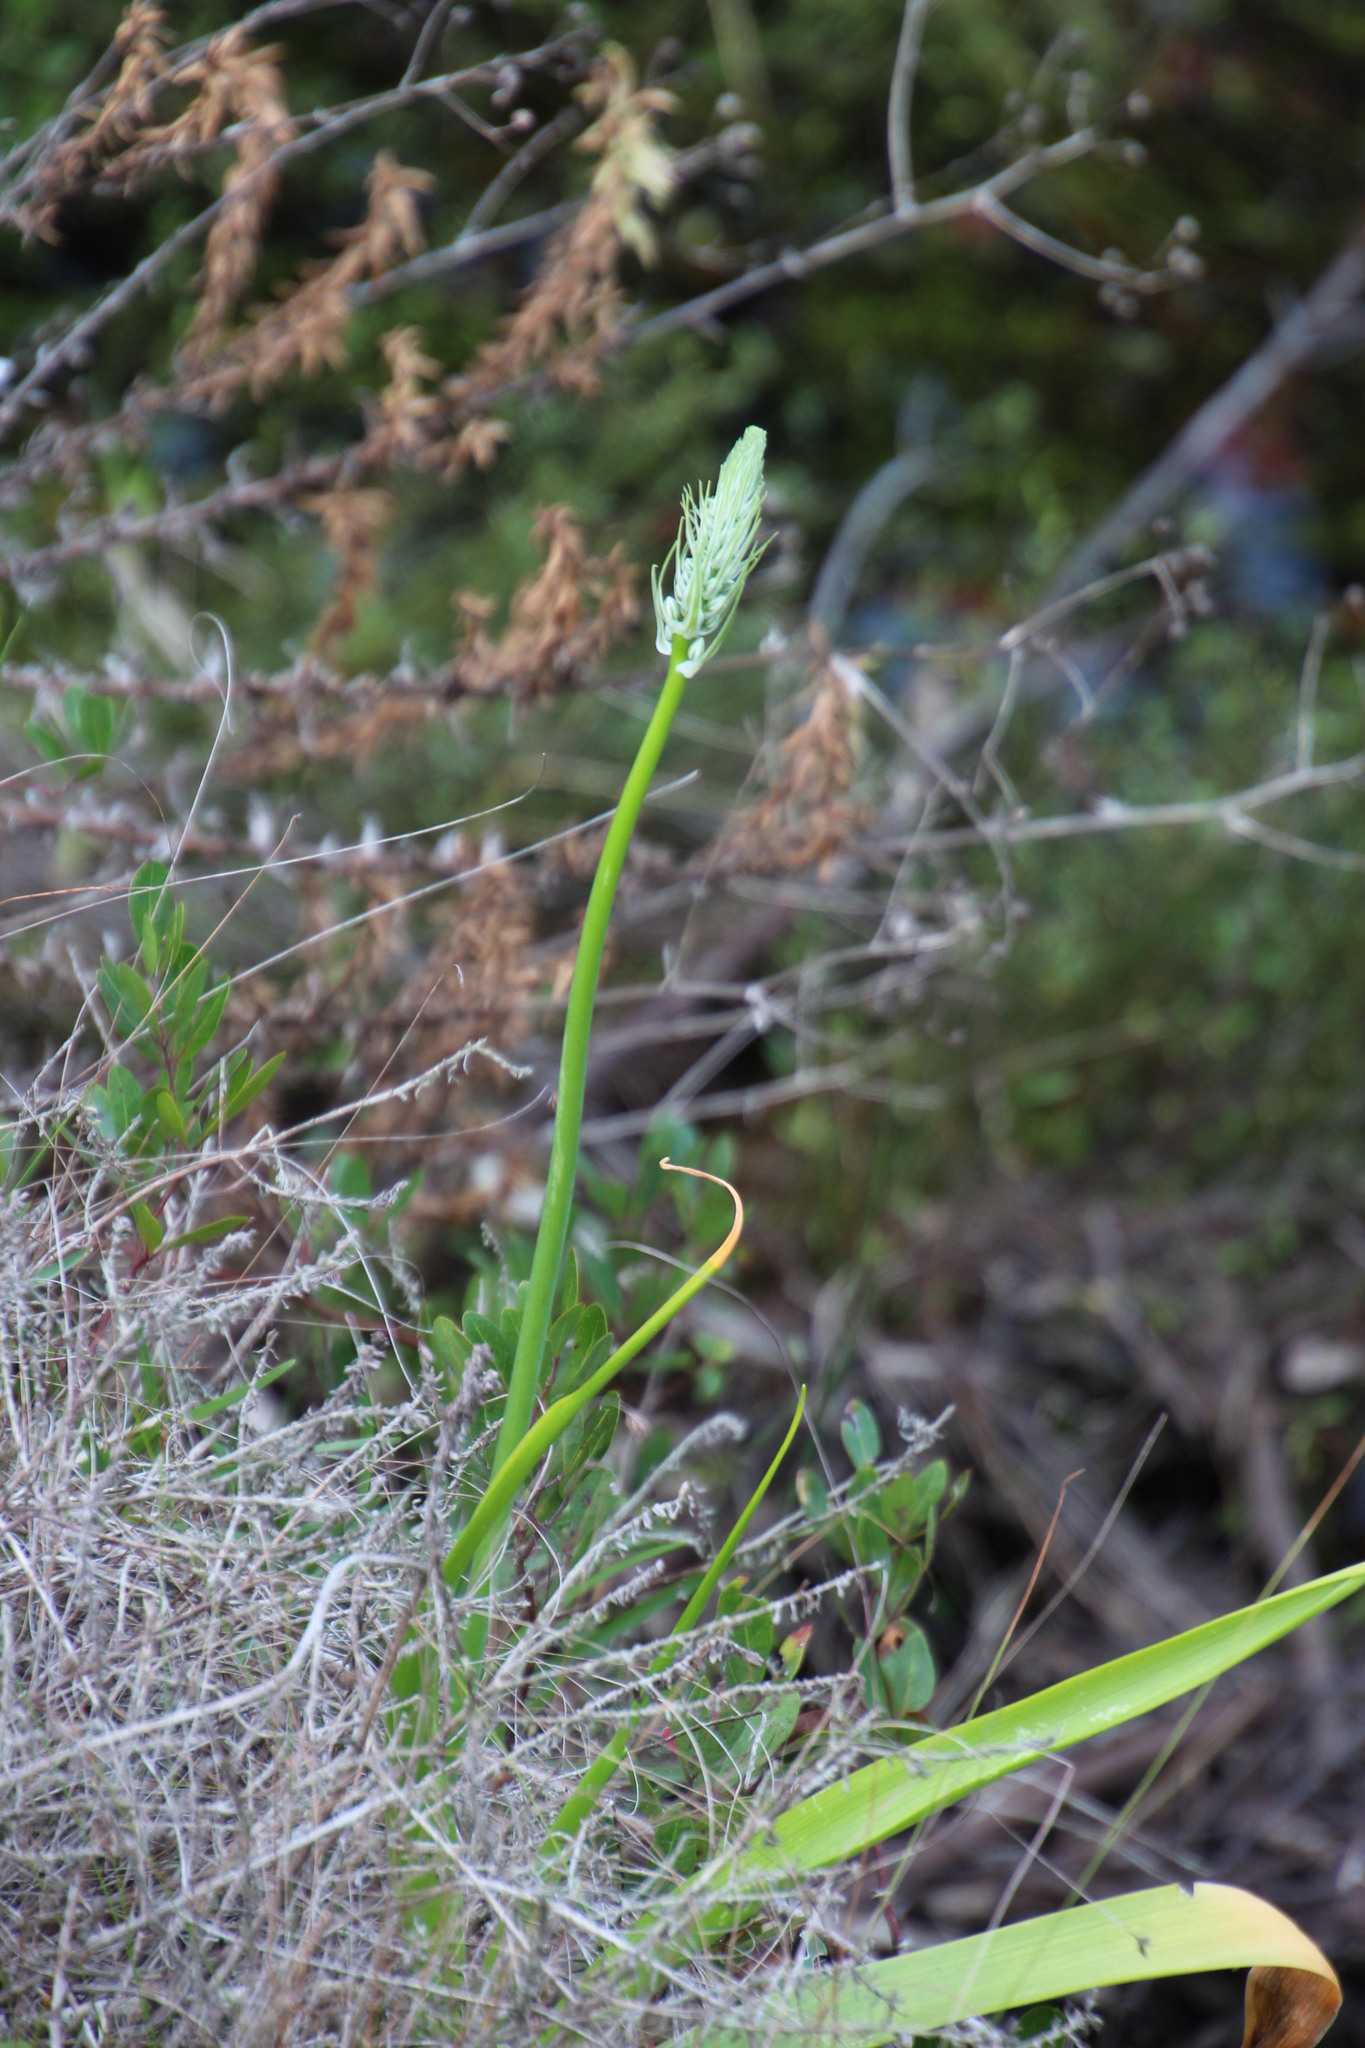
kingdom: Plantae
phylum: Tracheophyta
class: Liliopsida
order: Asparagales
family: Asparagaceae
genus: Albuca
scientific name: Albuca bracteata
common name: Sea-onion
